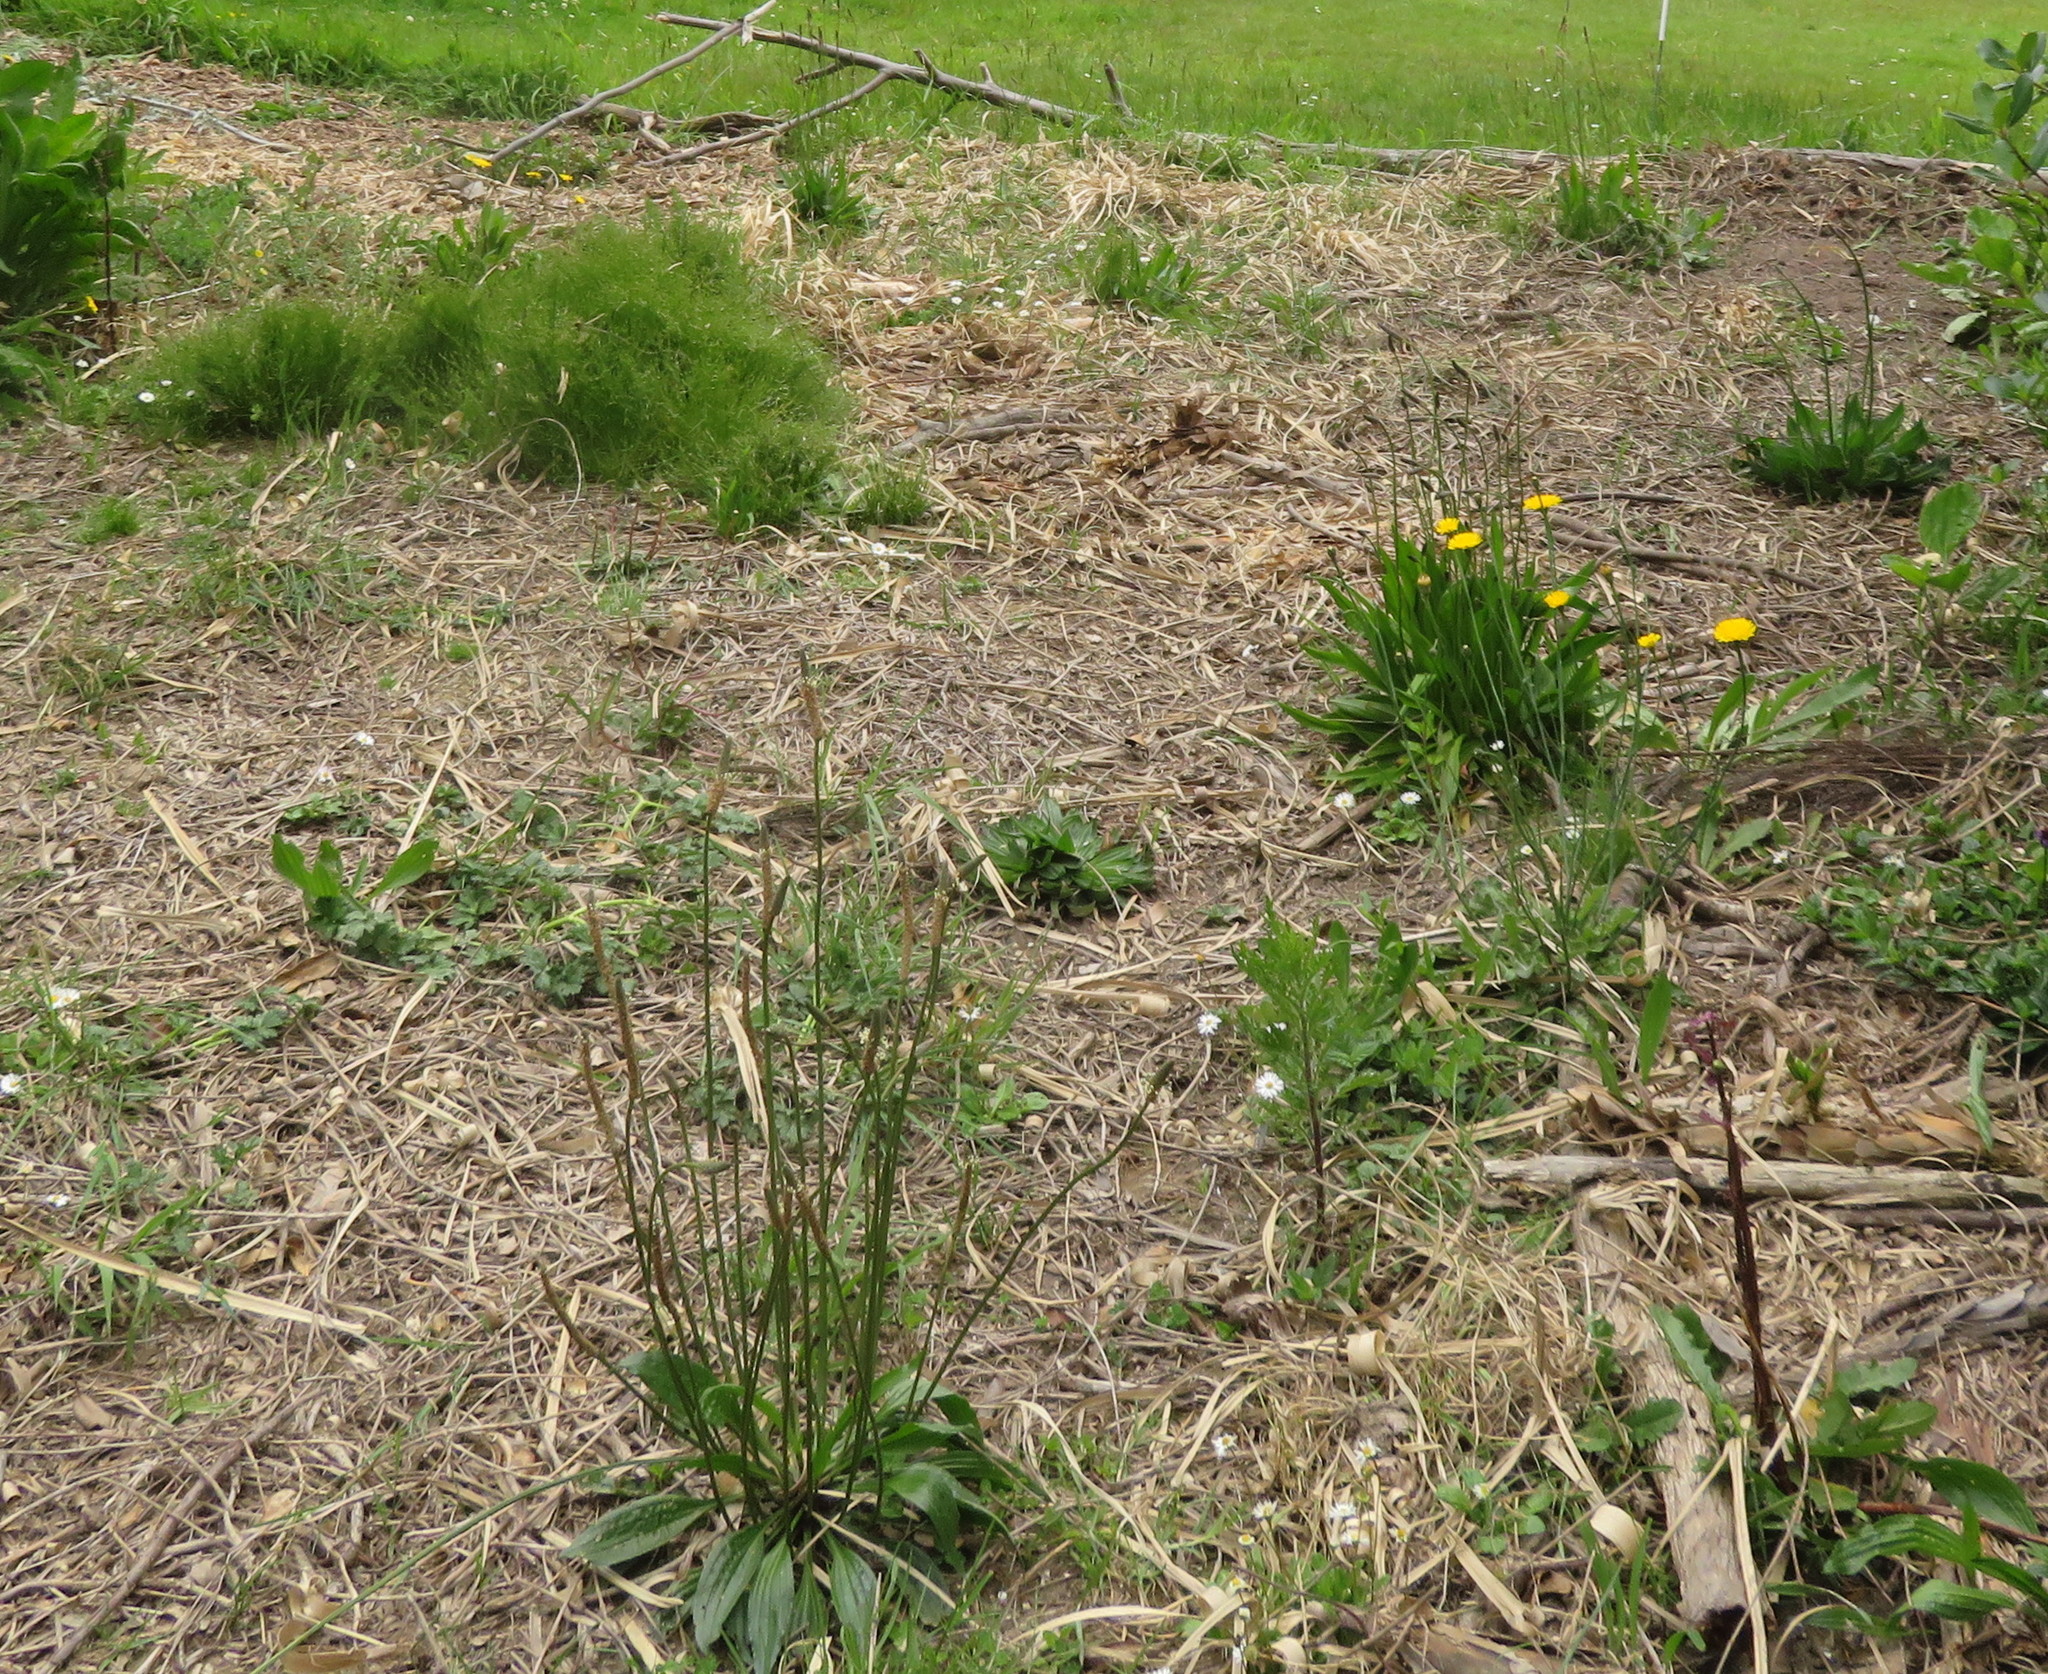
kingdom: Plantae
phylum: Tracheophyta
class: Magnoliopsida
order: Asterales
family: Asteraceae
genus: Senecio
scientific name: Senecio esleri
